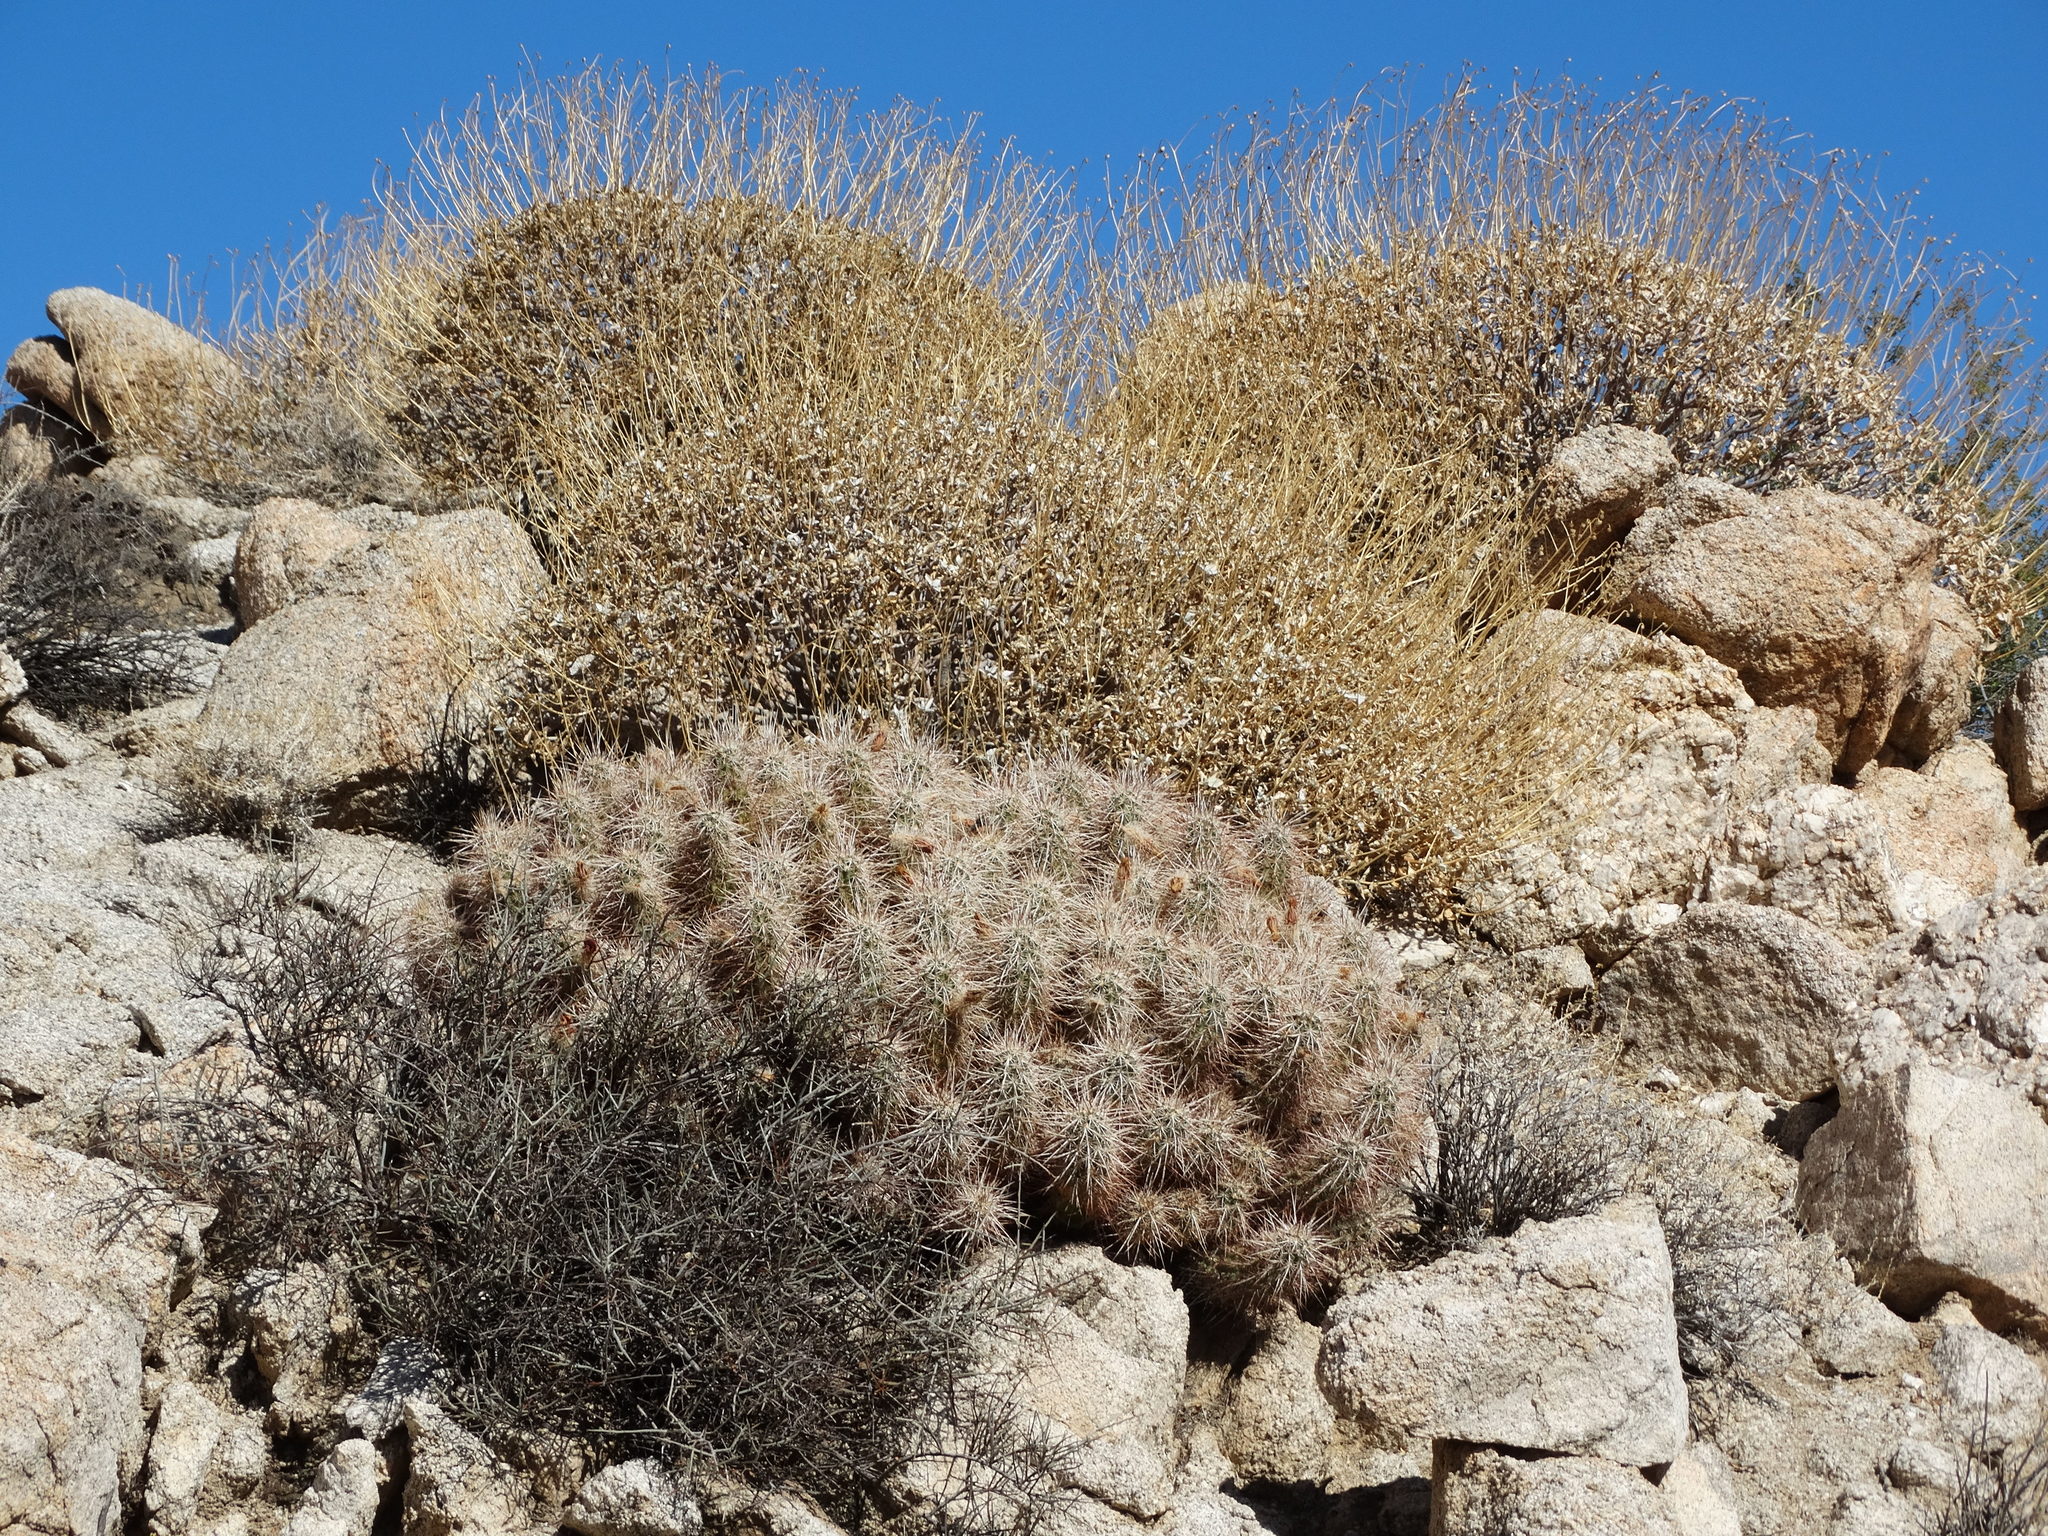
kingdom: Plantae
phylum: Tracheophyta
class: Magnoliopsida
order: Asterales
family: Asteraceae
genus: Encelia
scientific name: Encelia farinosa
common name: Brittlebush
